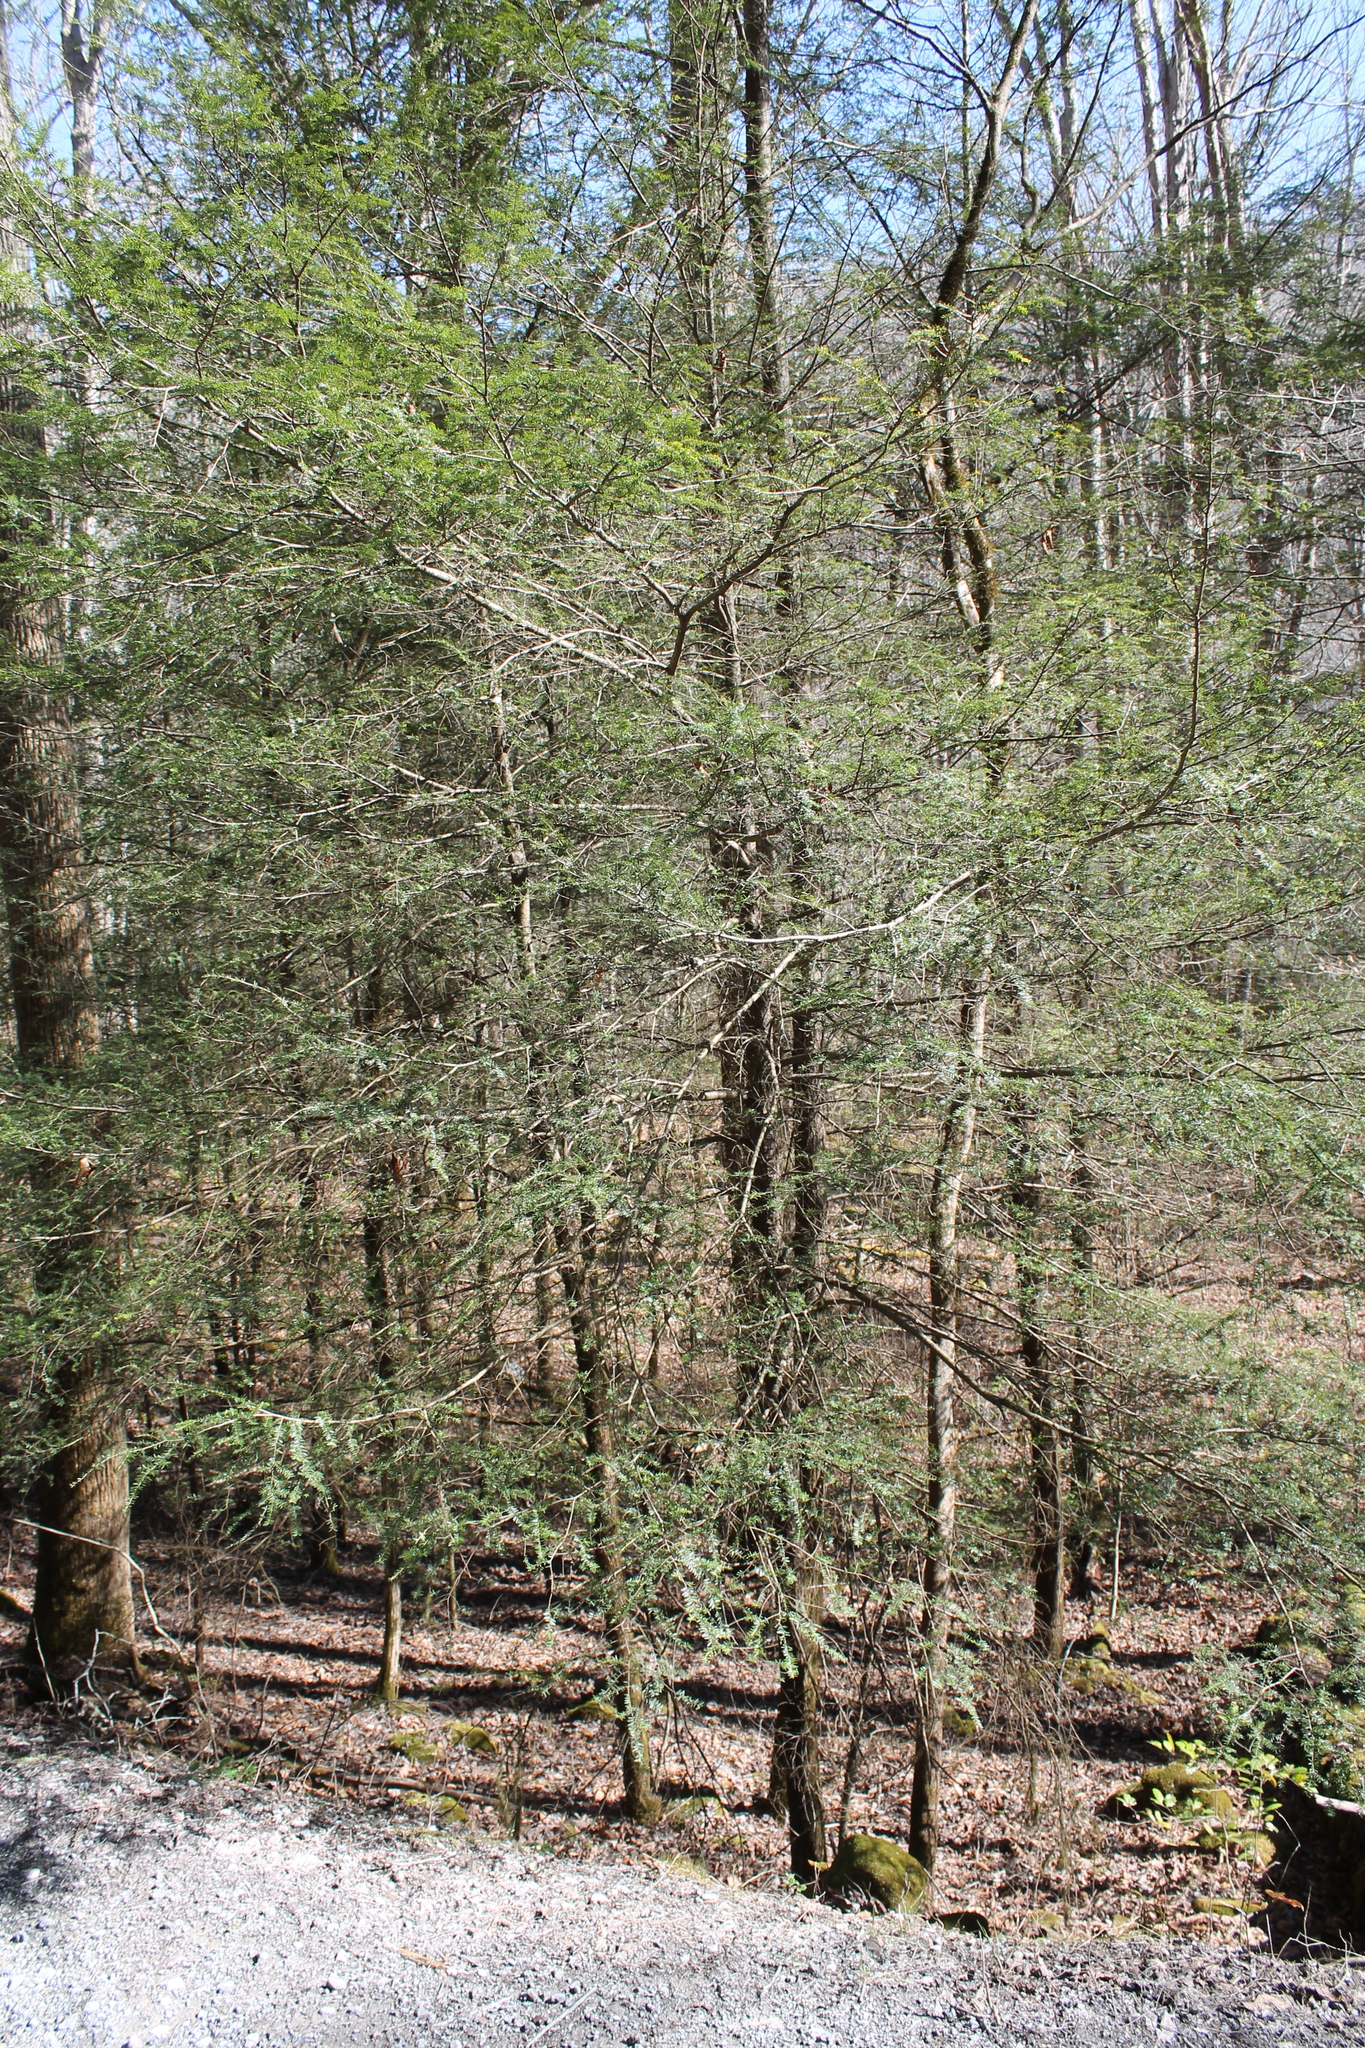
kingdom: Plantae
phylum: Tracheophyta
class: Pinopsida
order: Pinales
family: Pinaceae
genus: Tsuga
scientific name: Tsuga canadensis
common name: Eastern hemlock
